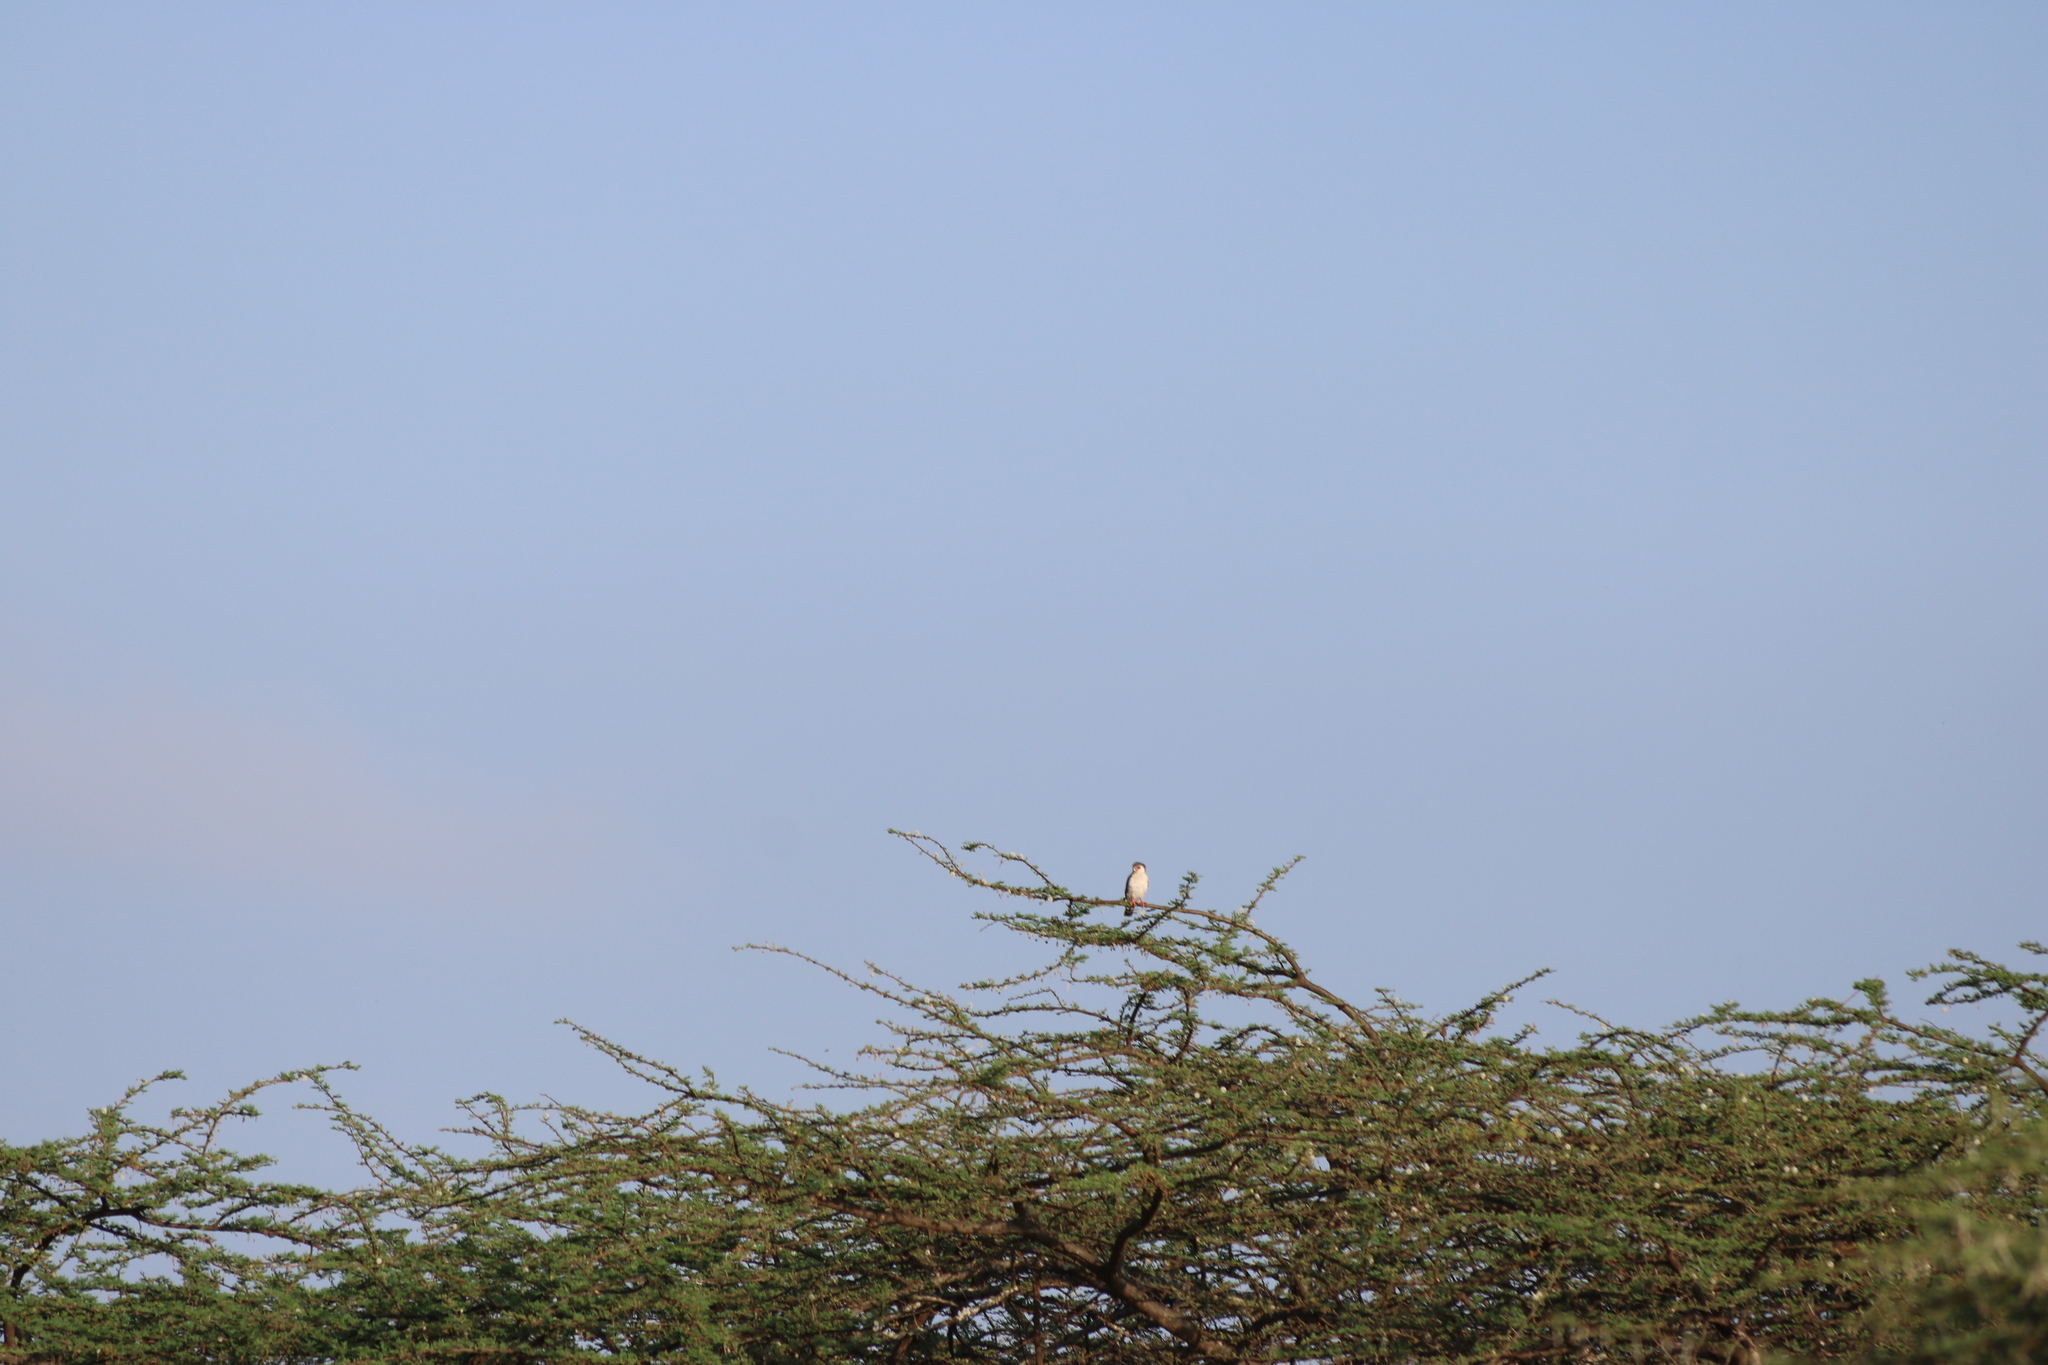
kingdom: Animalia
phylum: Chordata
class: Aves
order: Falconiformes
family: Falconidae
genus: Polihierax
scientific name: Polihierax semitorquatus
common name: Pygmy falcon
